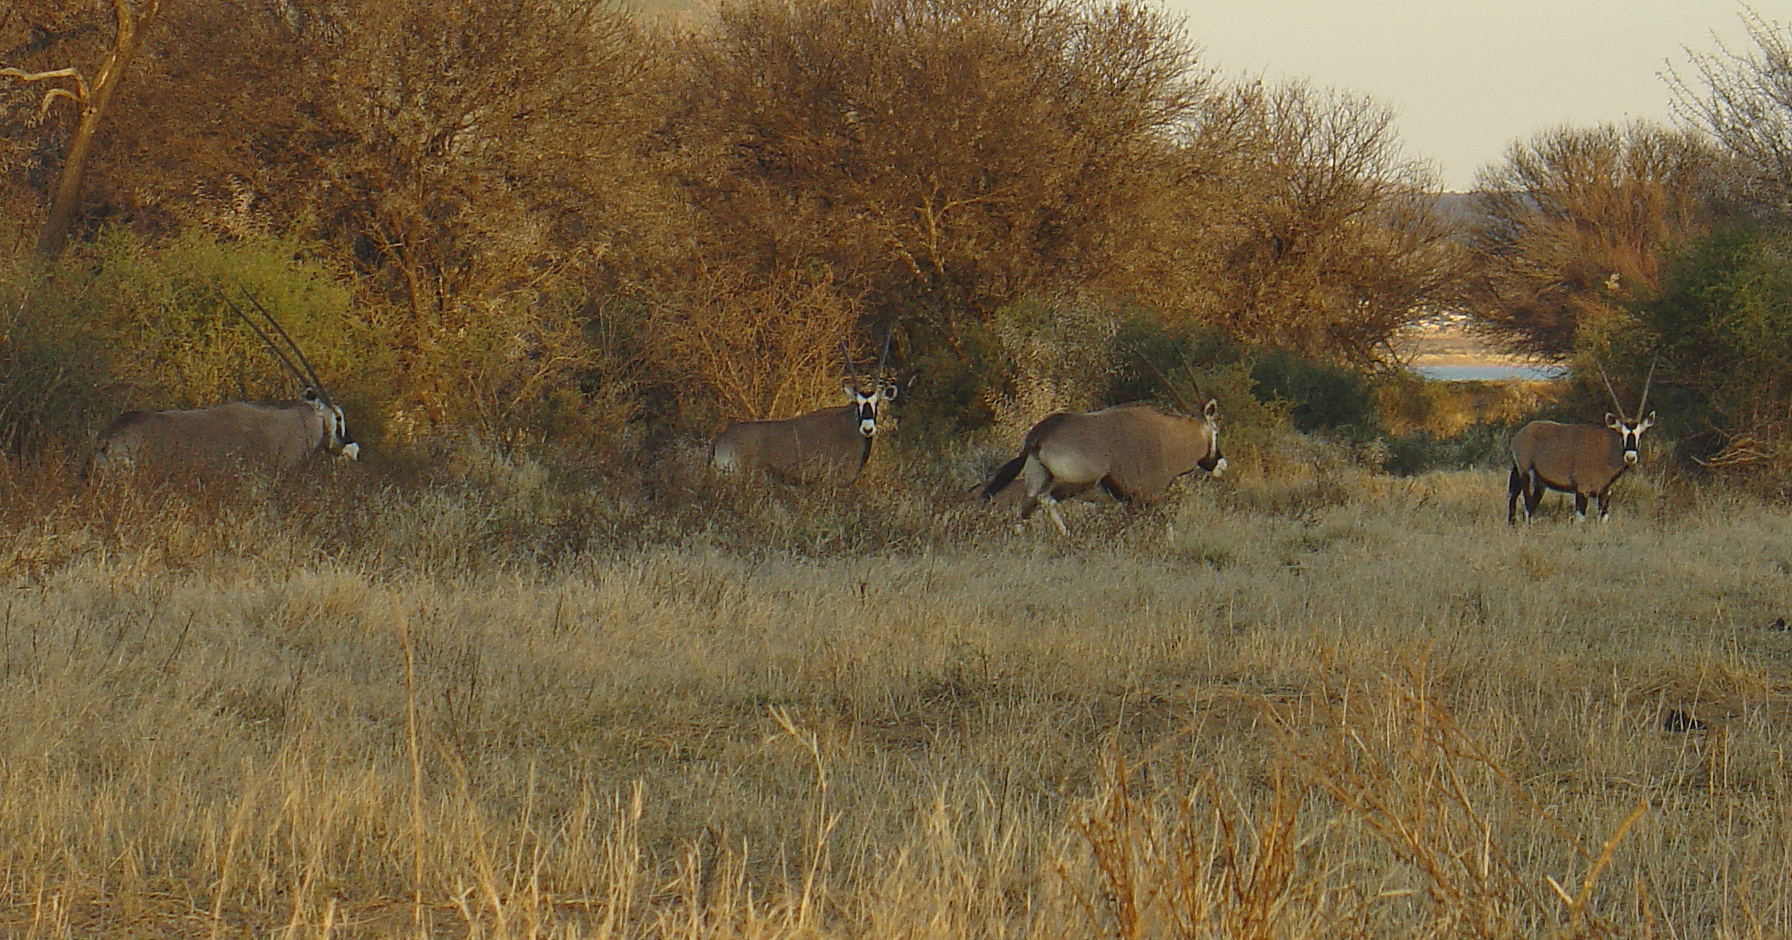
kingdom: Animalia
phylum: Chordata
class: Mammalia
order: Artiodactyla
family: Bovidae
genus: Oryx
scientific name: Oryx gazella
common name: Gemsbok
